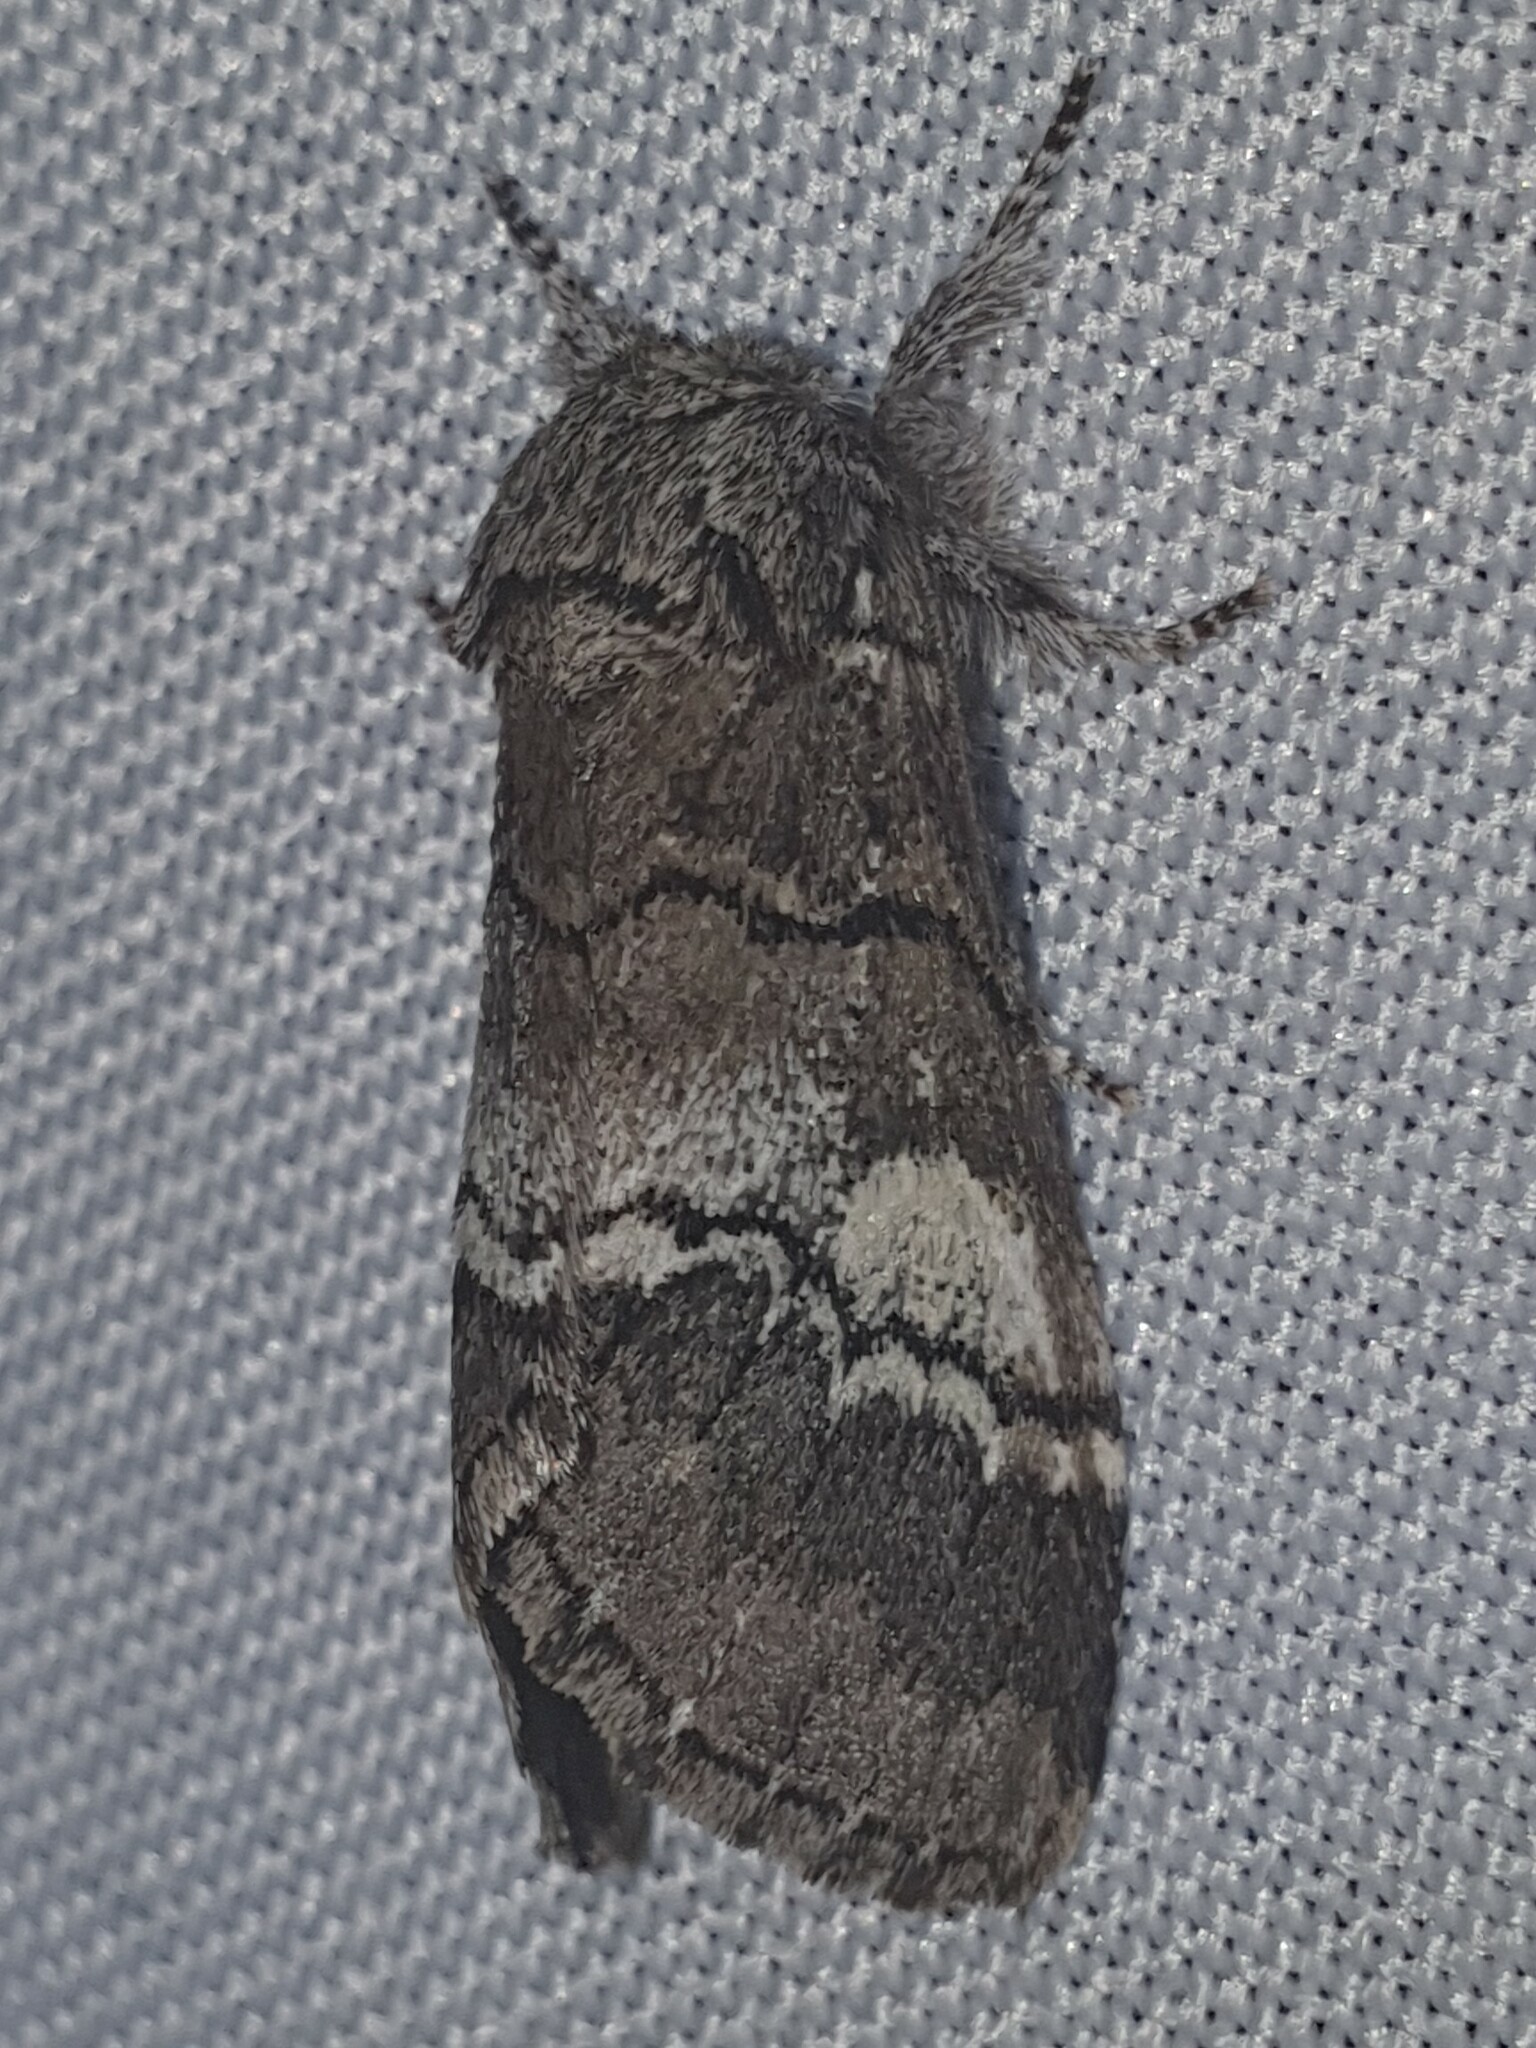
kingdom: Animalia
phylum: Arthropoda
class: Insecta
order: Lepidoptera
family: Notodontidae
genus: Drymonia
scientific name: Drymonia querna
